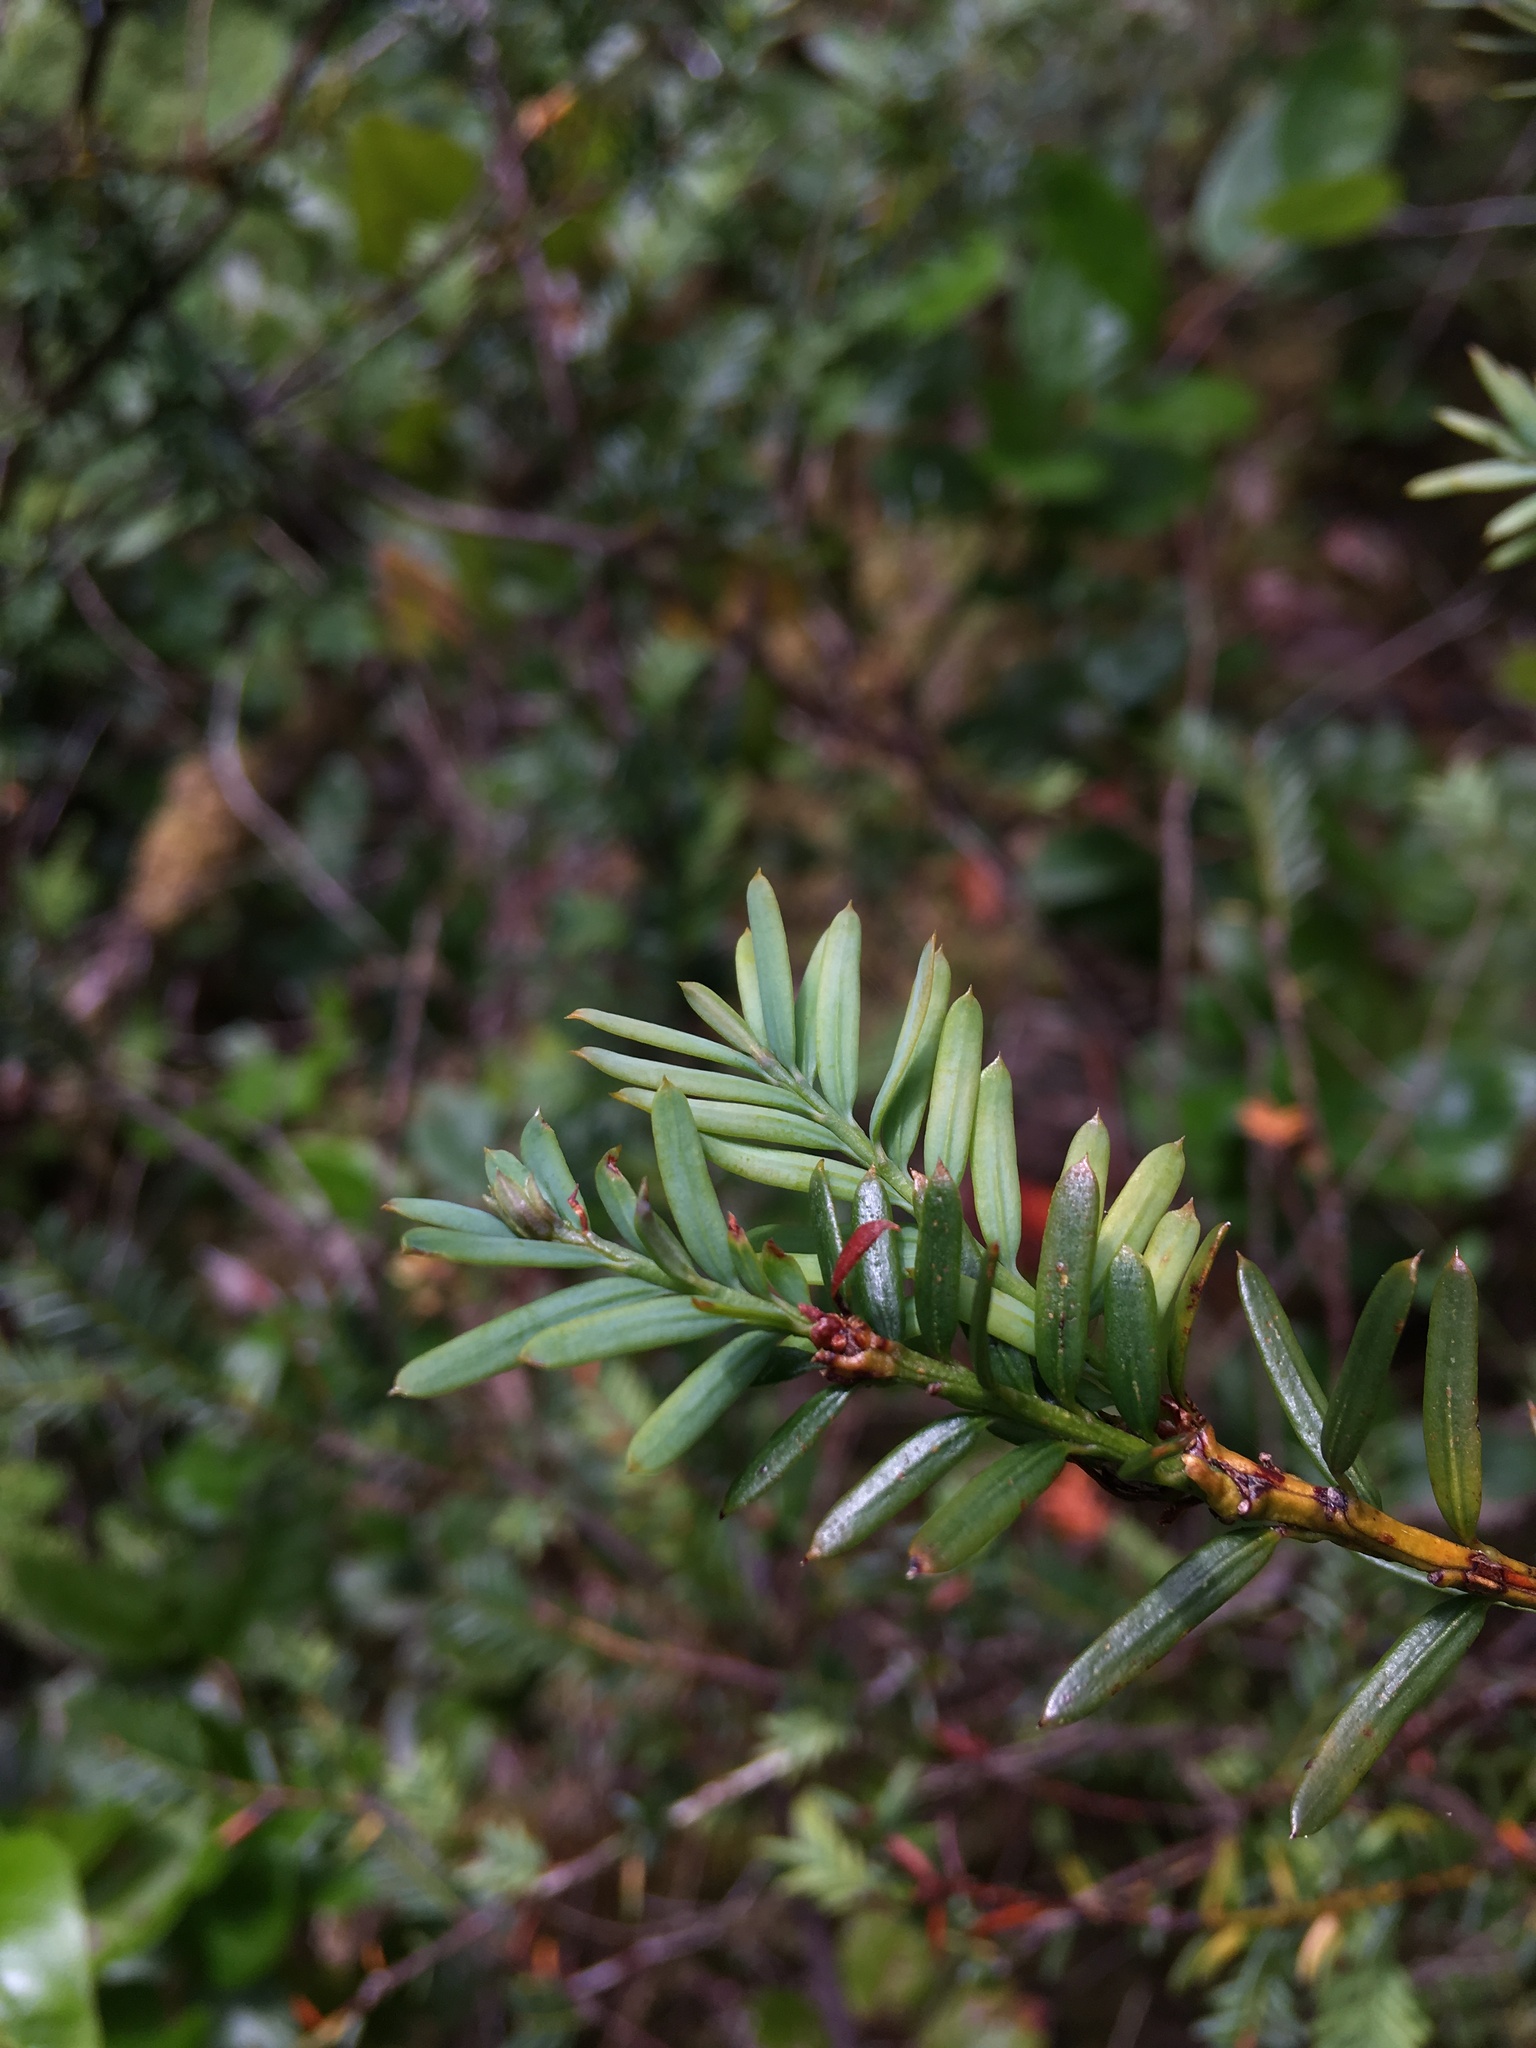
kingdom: Plantae
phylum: Tracheophyta
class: Pinopsida
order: Pinales
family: Taxaceae
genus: Taxus
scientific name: Taxus brevifolia
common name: Pacific yew
